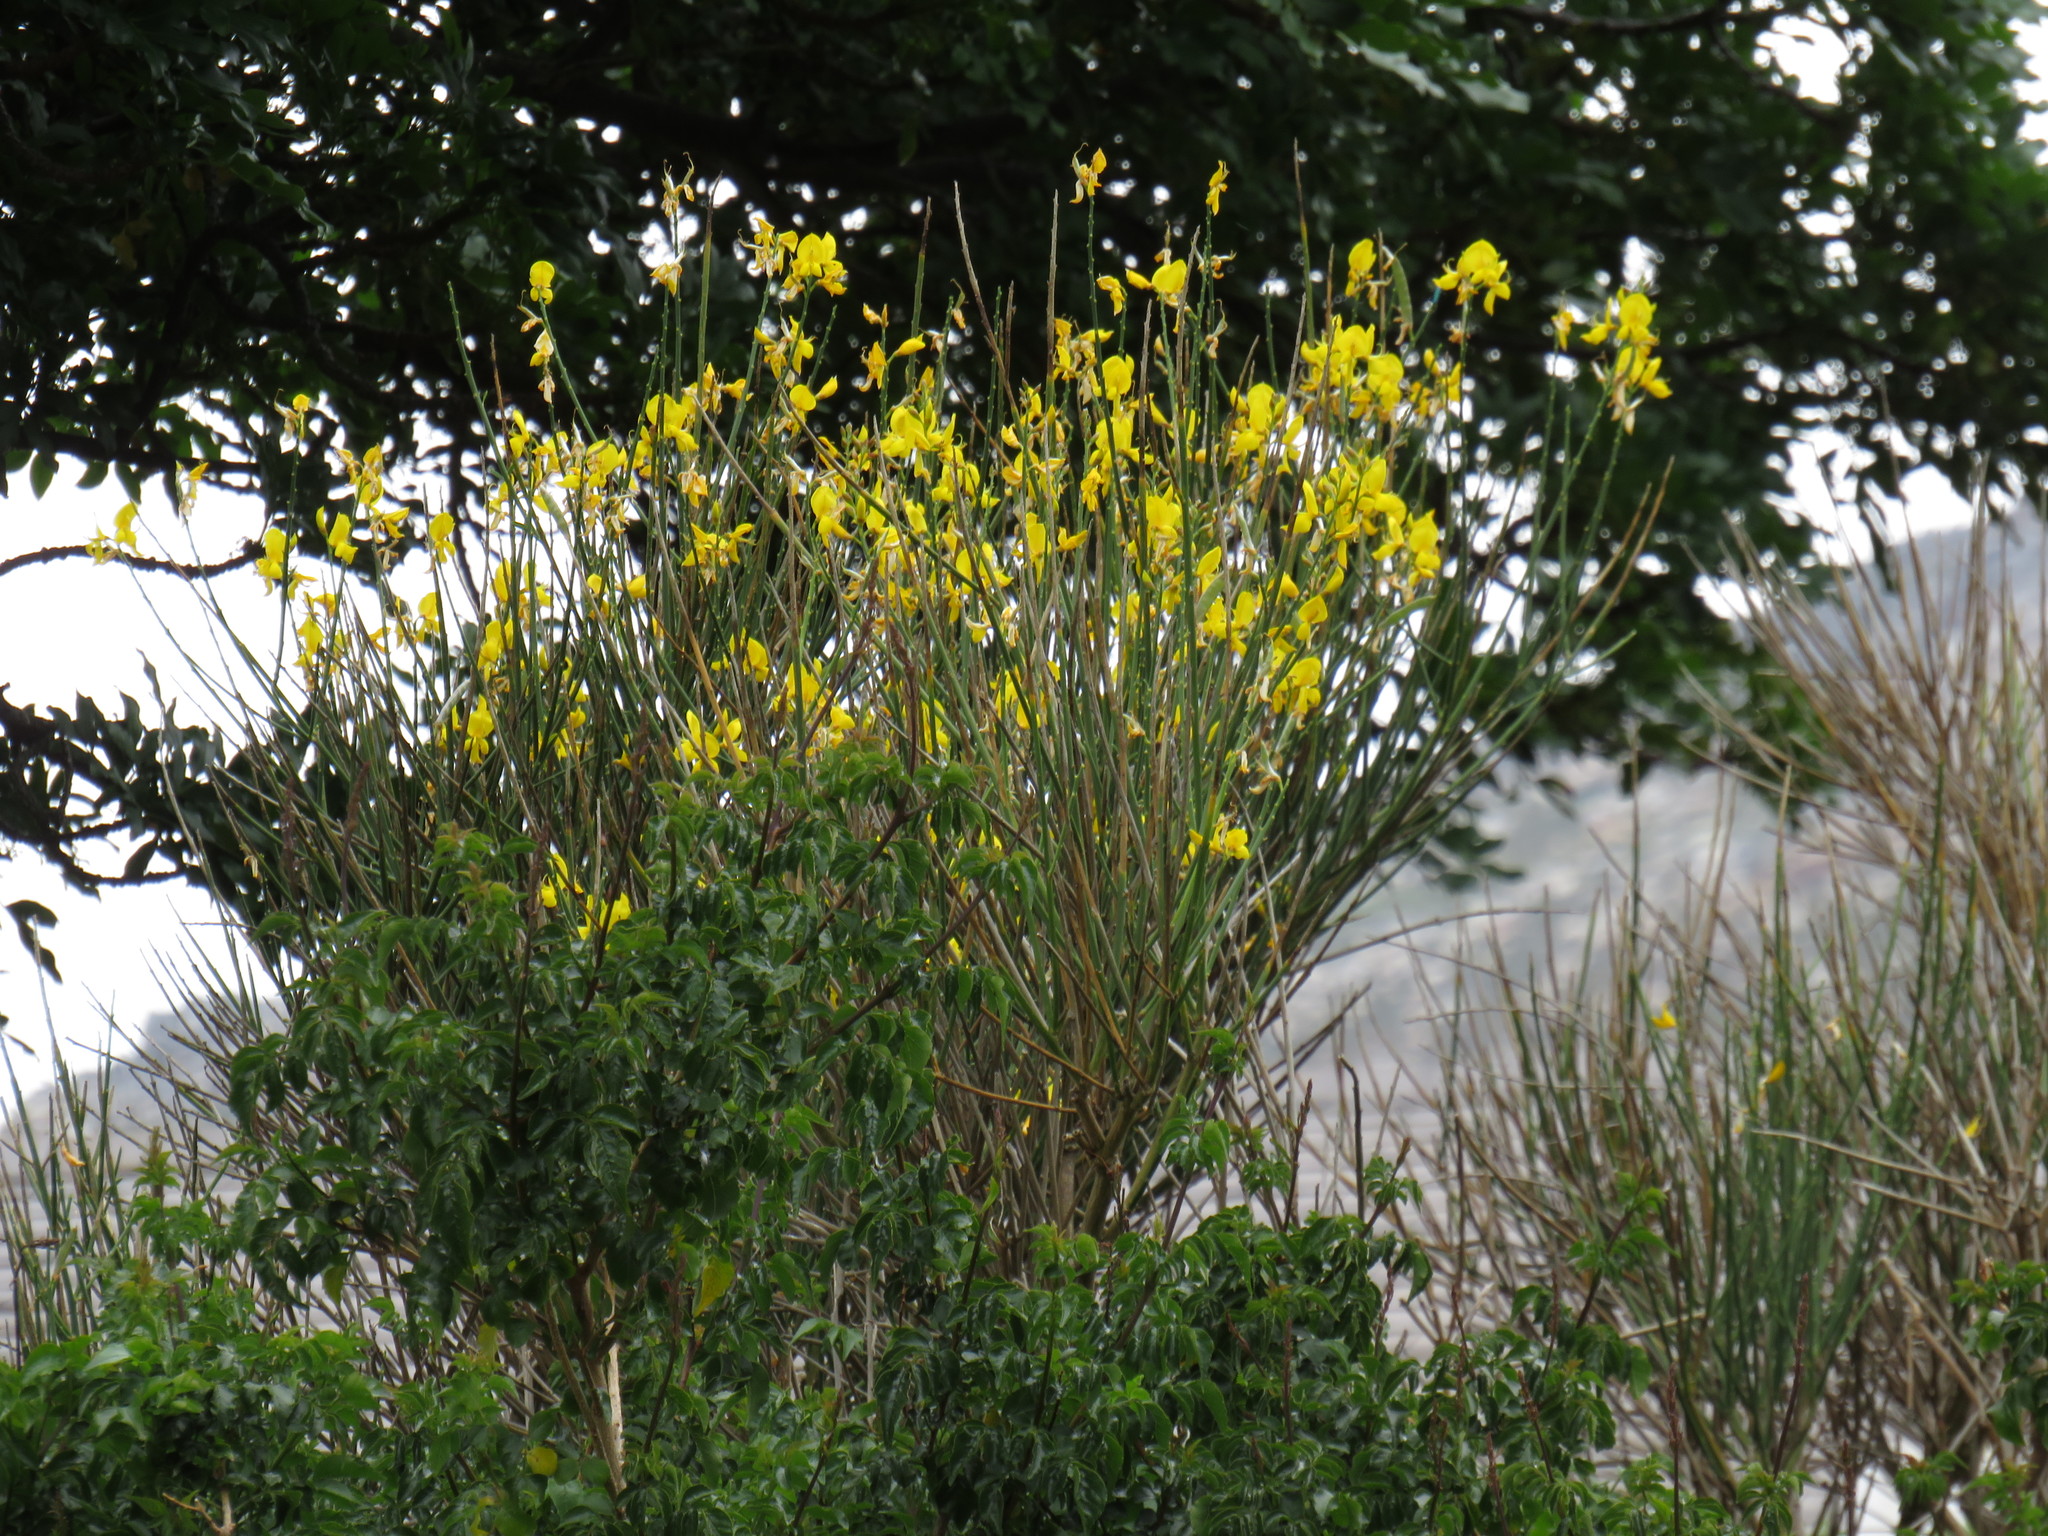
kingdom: Plantae
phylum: Tracheophyta
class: Magnoliopsida
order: Fabales
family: Fabaceae
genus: Spartium
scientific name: Spartium junceum
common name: Spanish broom
